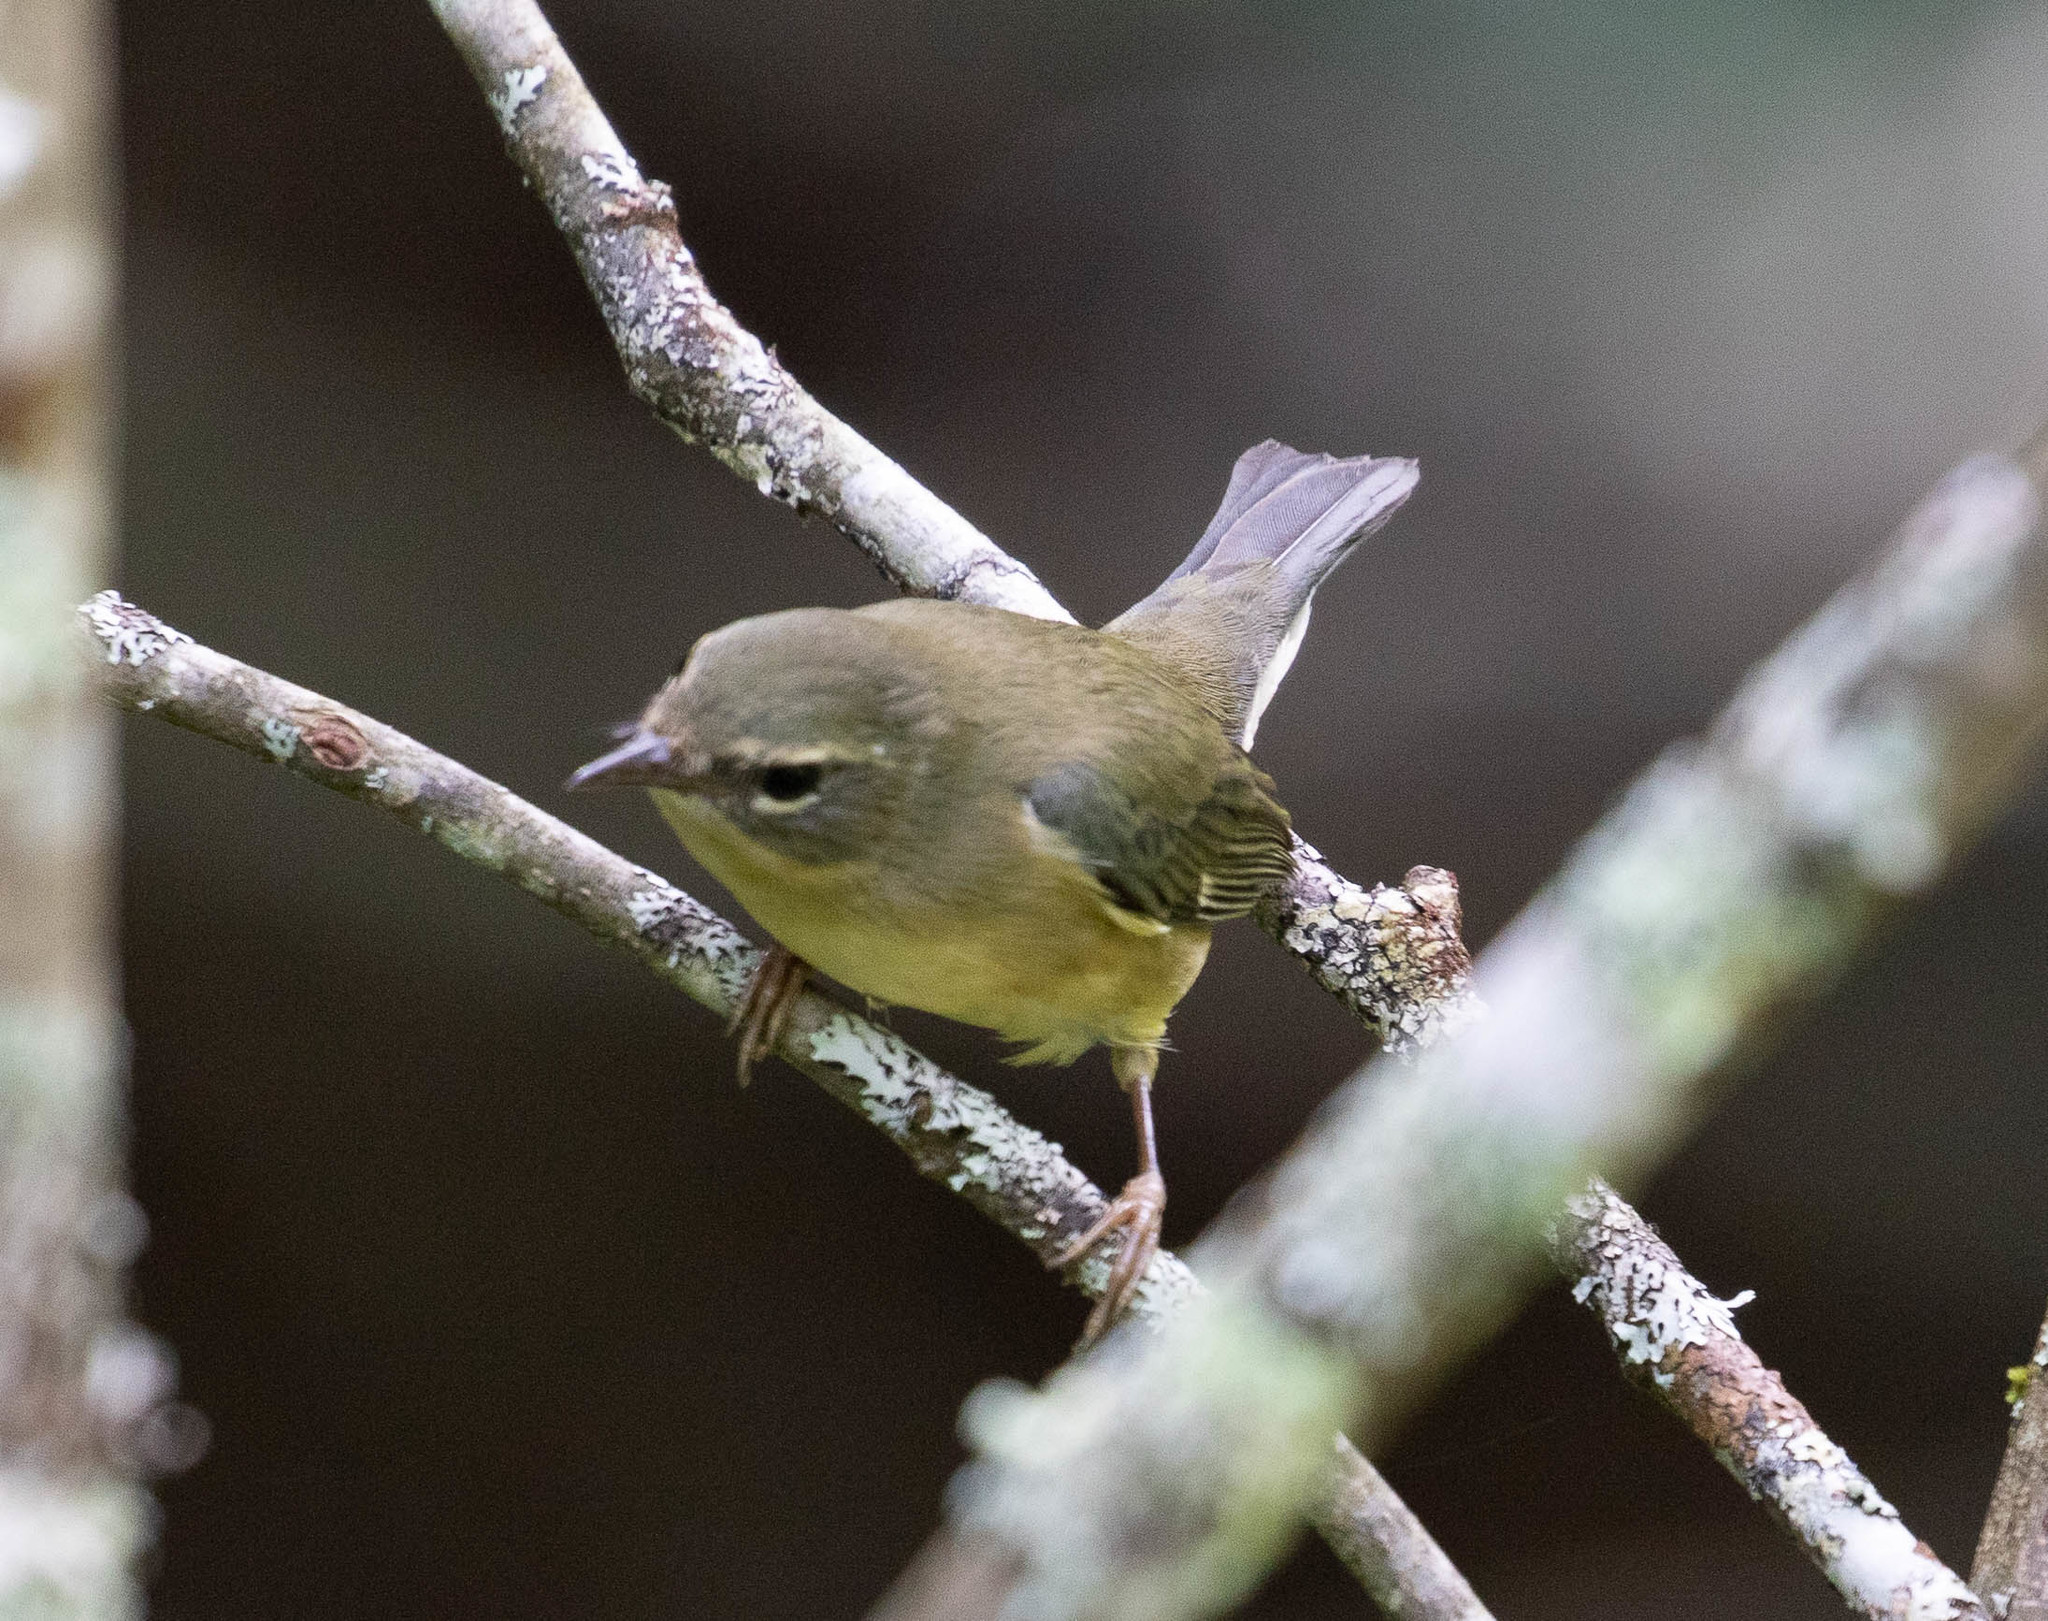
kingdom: Animalia
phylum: Chordata
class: Aves
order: Passeriformes
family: Parulidae
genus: Setophaga
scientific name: Setophaga caerulescens
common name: Black-throated blue warbler
